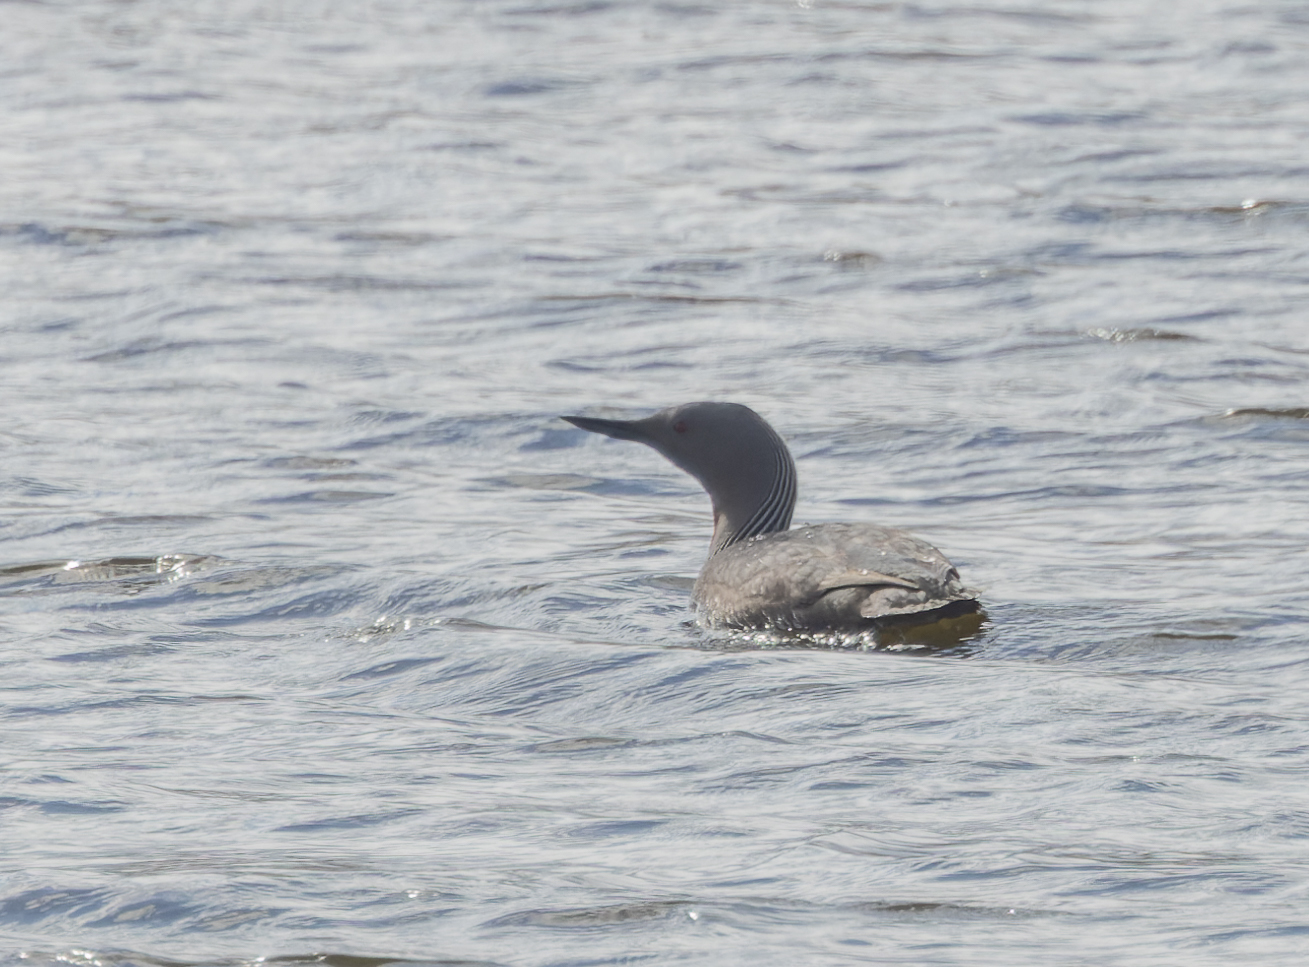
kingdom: Animalia
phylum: Chordata
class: Aves
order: Gaviiformes
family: Gaviidae
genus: Gavia
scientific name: Gavia stellata
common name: Red-throated loon
